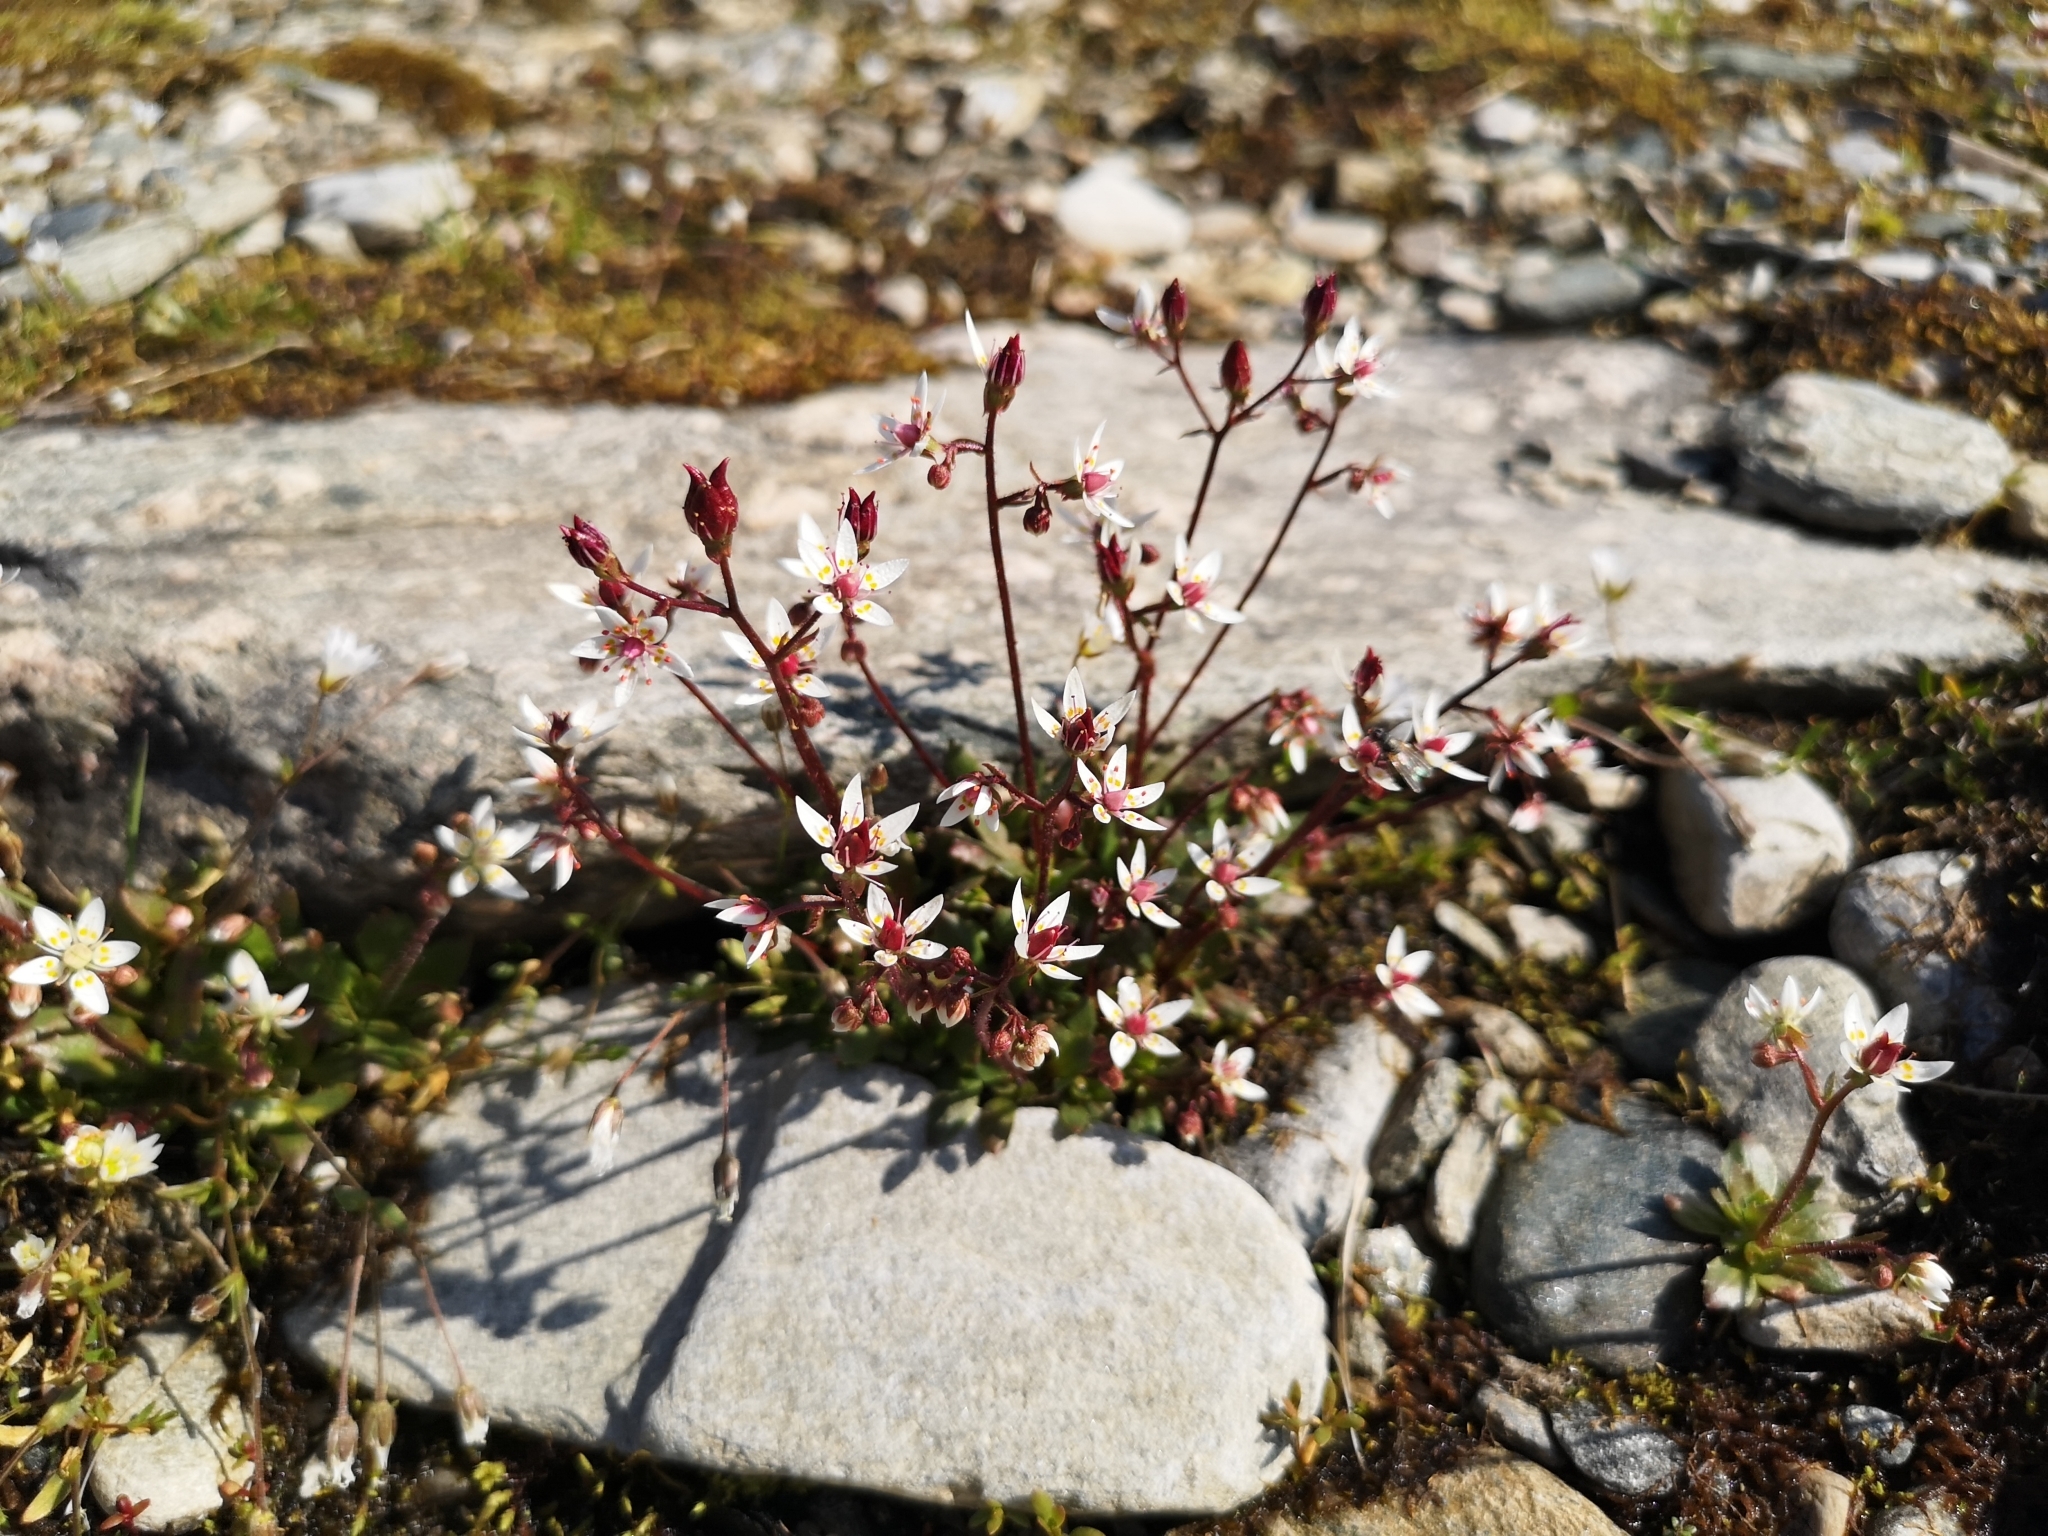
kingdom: Plantae
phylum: Tracheophyta
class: Magnoliopsida
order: Saxifragales
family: Saxifragaceae
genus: Micranthes
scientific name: Micranthes stellaris
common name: Starry saxifrage
